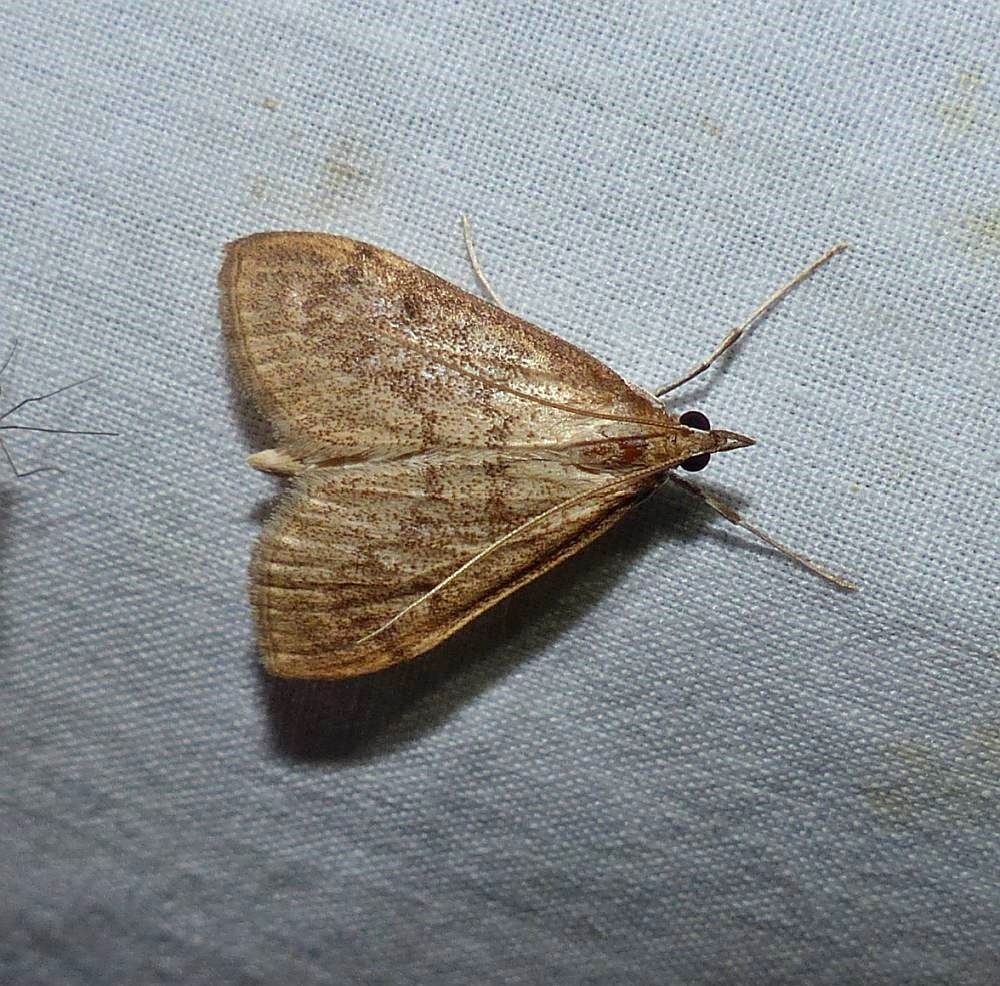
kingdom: Animalia
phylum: Arthropoda
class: Insecta
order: Lepidoptera
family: Crambidae
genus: Saucrobotys
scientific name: Saucrobotys futilalis
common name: Dogbane saucrobotys moth
